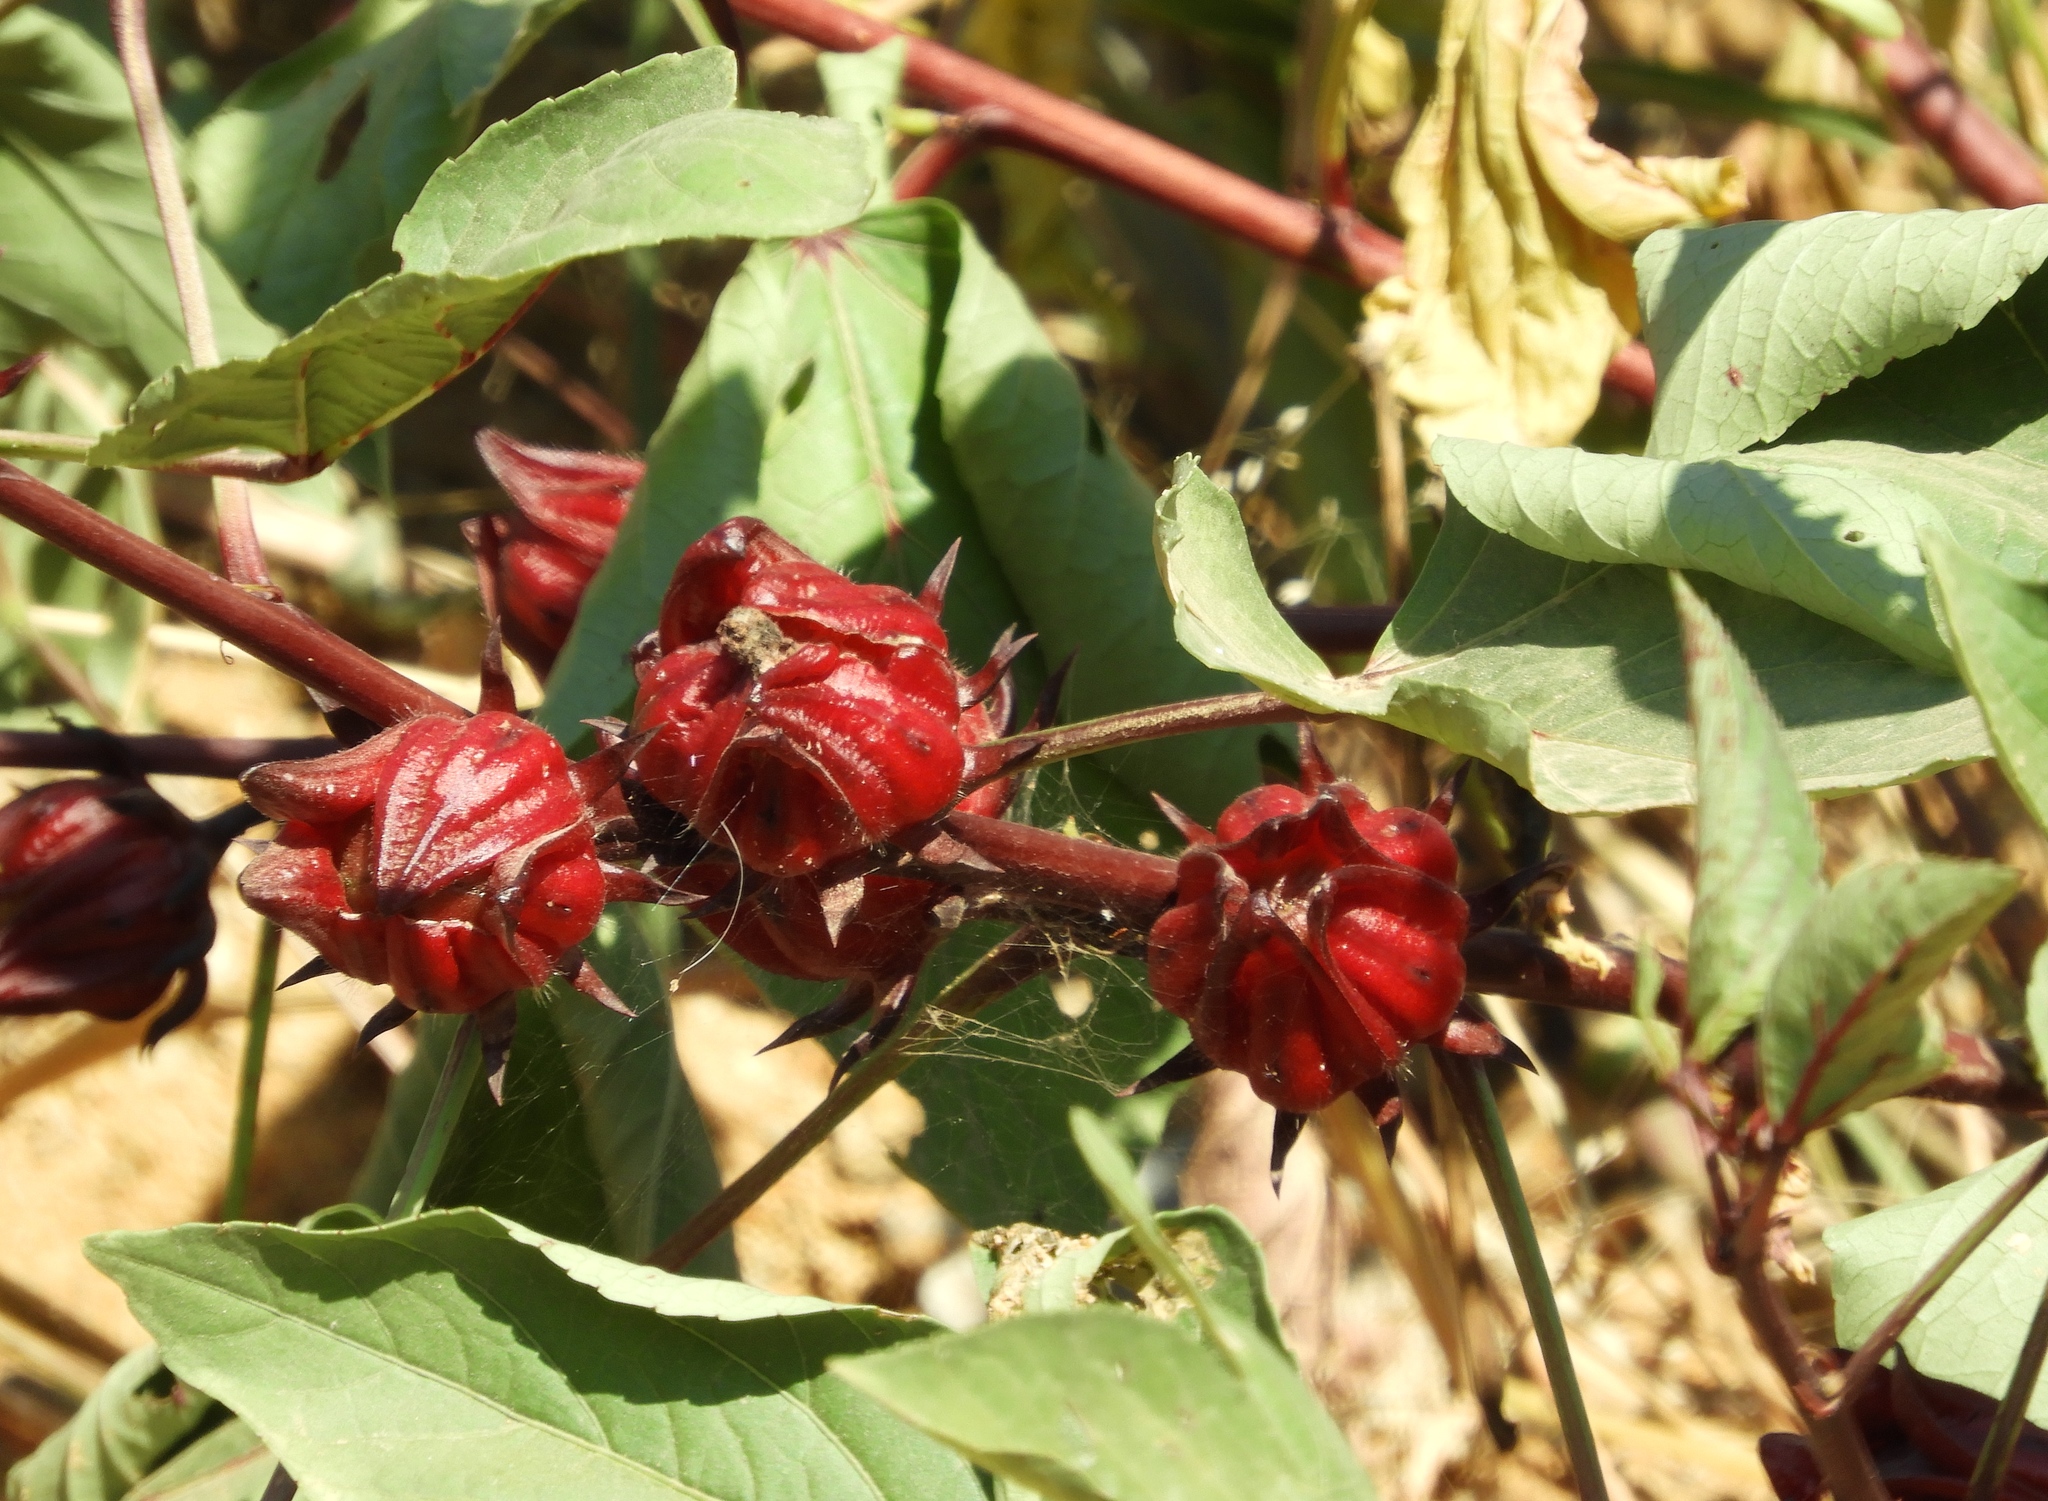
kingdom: Plantae
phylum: Tracheophyta
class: Magnoliopsida
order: Malvales
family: Malvaceae
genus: Hibiscus
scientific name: Hibiscus sabdariffa
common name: Roselle
